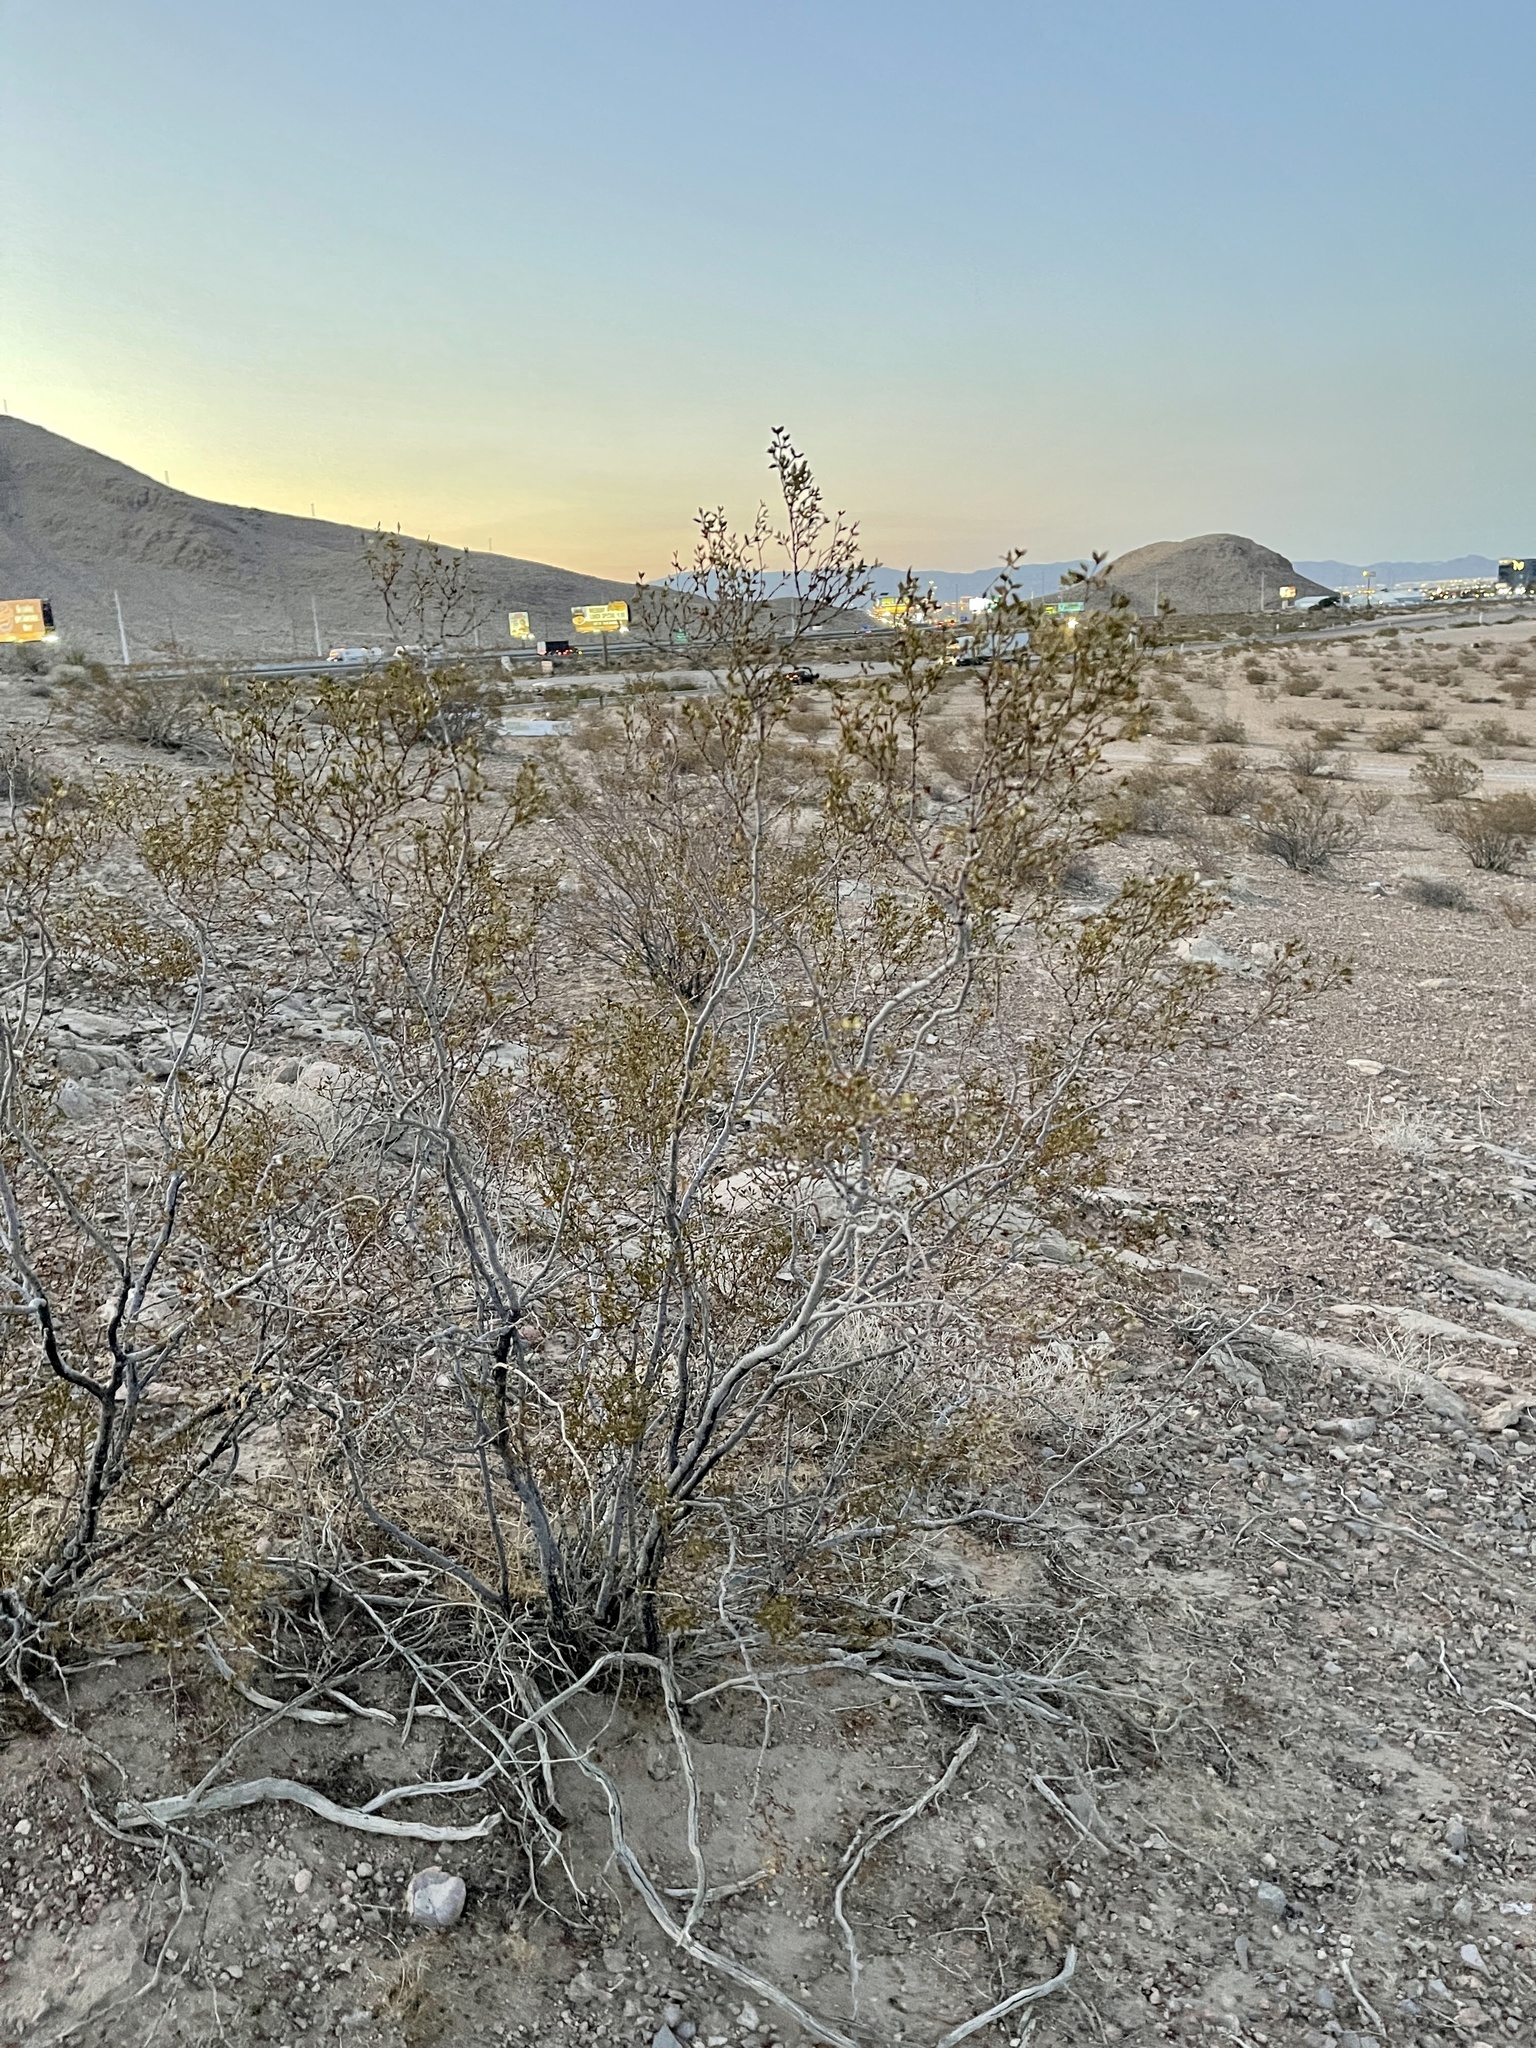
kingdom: Plantae
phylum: Tracheophyta
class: Magnoliopsida
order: Zygophyllales
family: Zygophyllaceae
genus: Larrea
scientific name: Larrea tridentata
